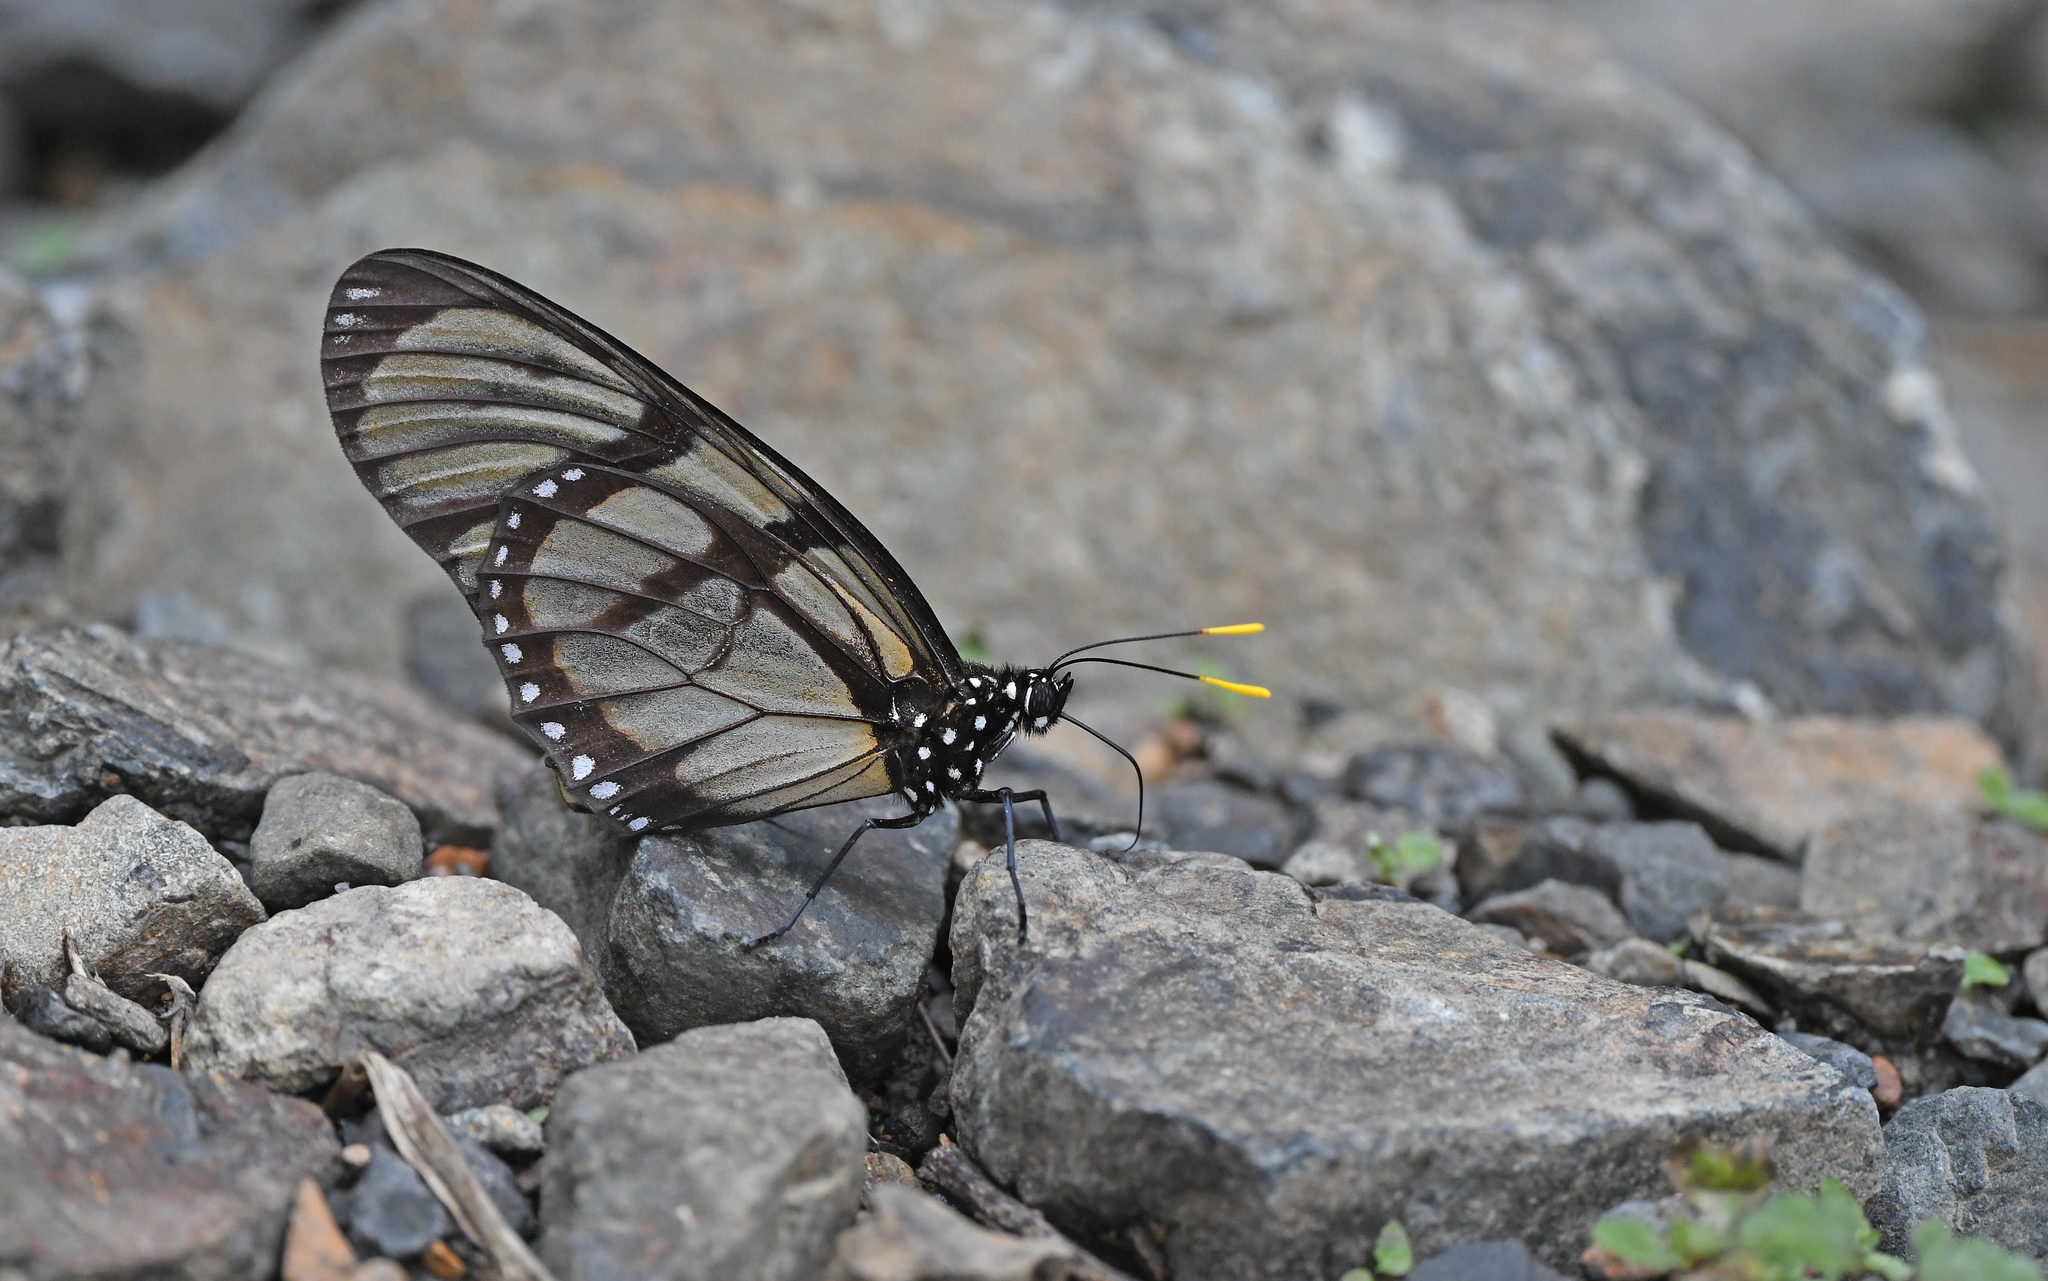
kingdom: Animalia
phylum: Arthropoda
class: Insecta
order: Lepidoptera
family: Nymphalidae
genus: Lycorea
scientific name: Lycorea ilione
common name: Clearwing mimic-queen
